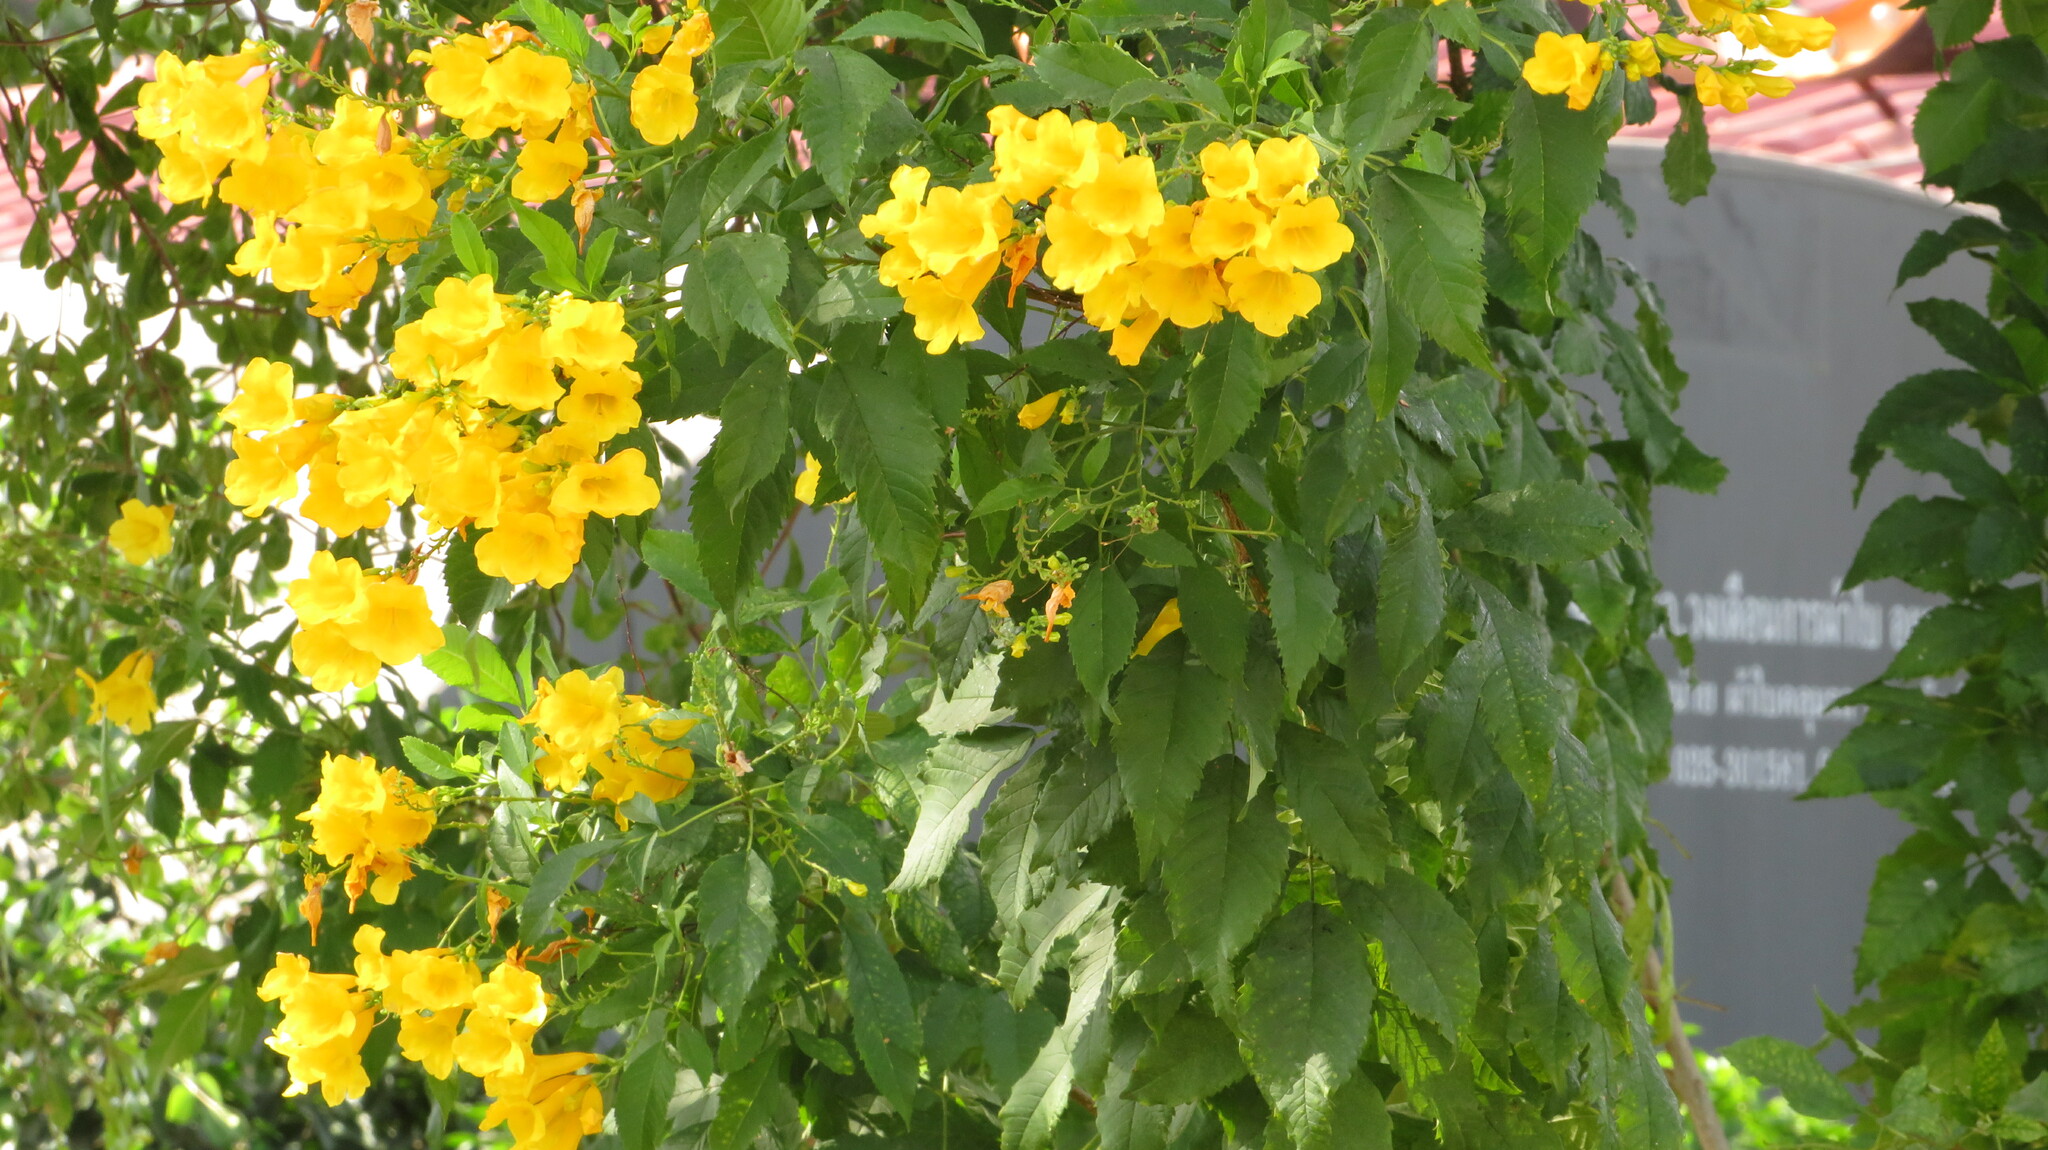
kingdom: Plantae
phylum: Tracheophyta
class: Magnoliopsida
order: Lamiales
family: Bignoniaceae
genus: Tecoma
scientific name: Tecoma stans
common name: Yellow trumpetbush
